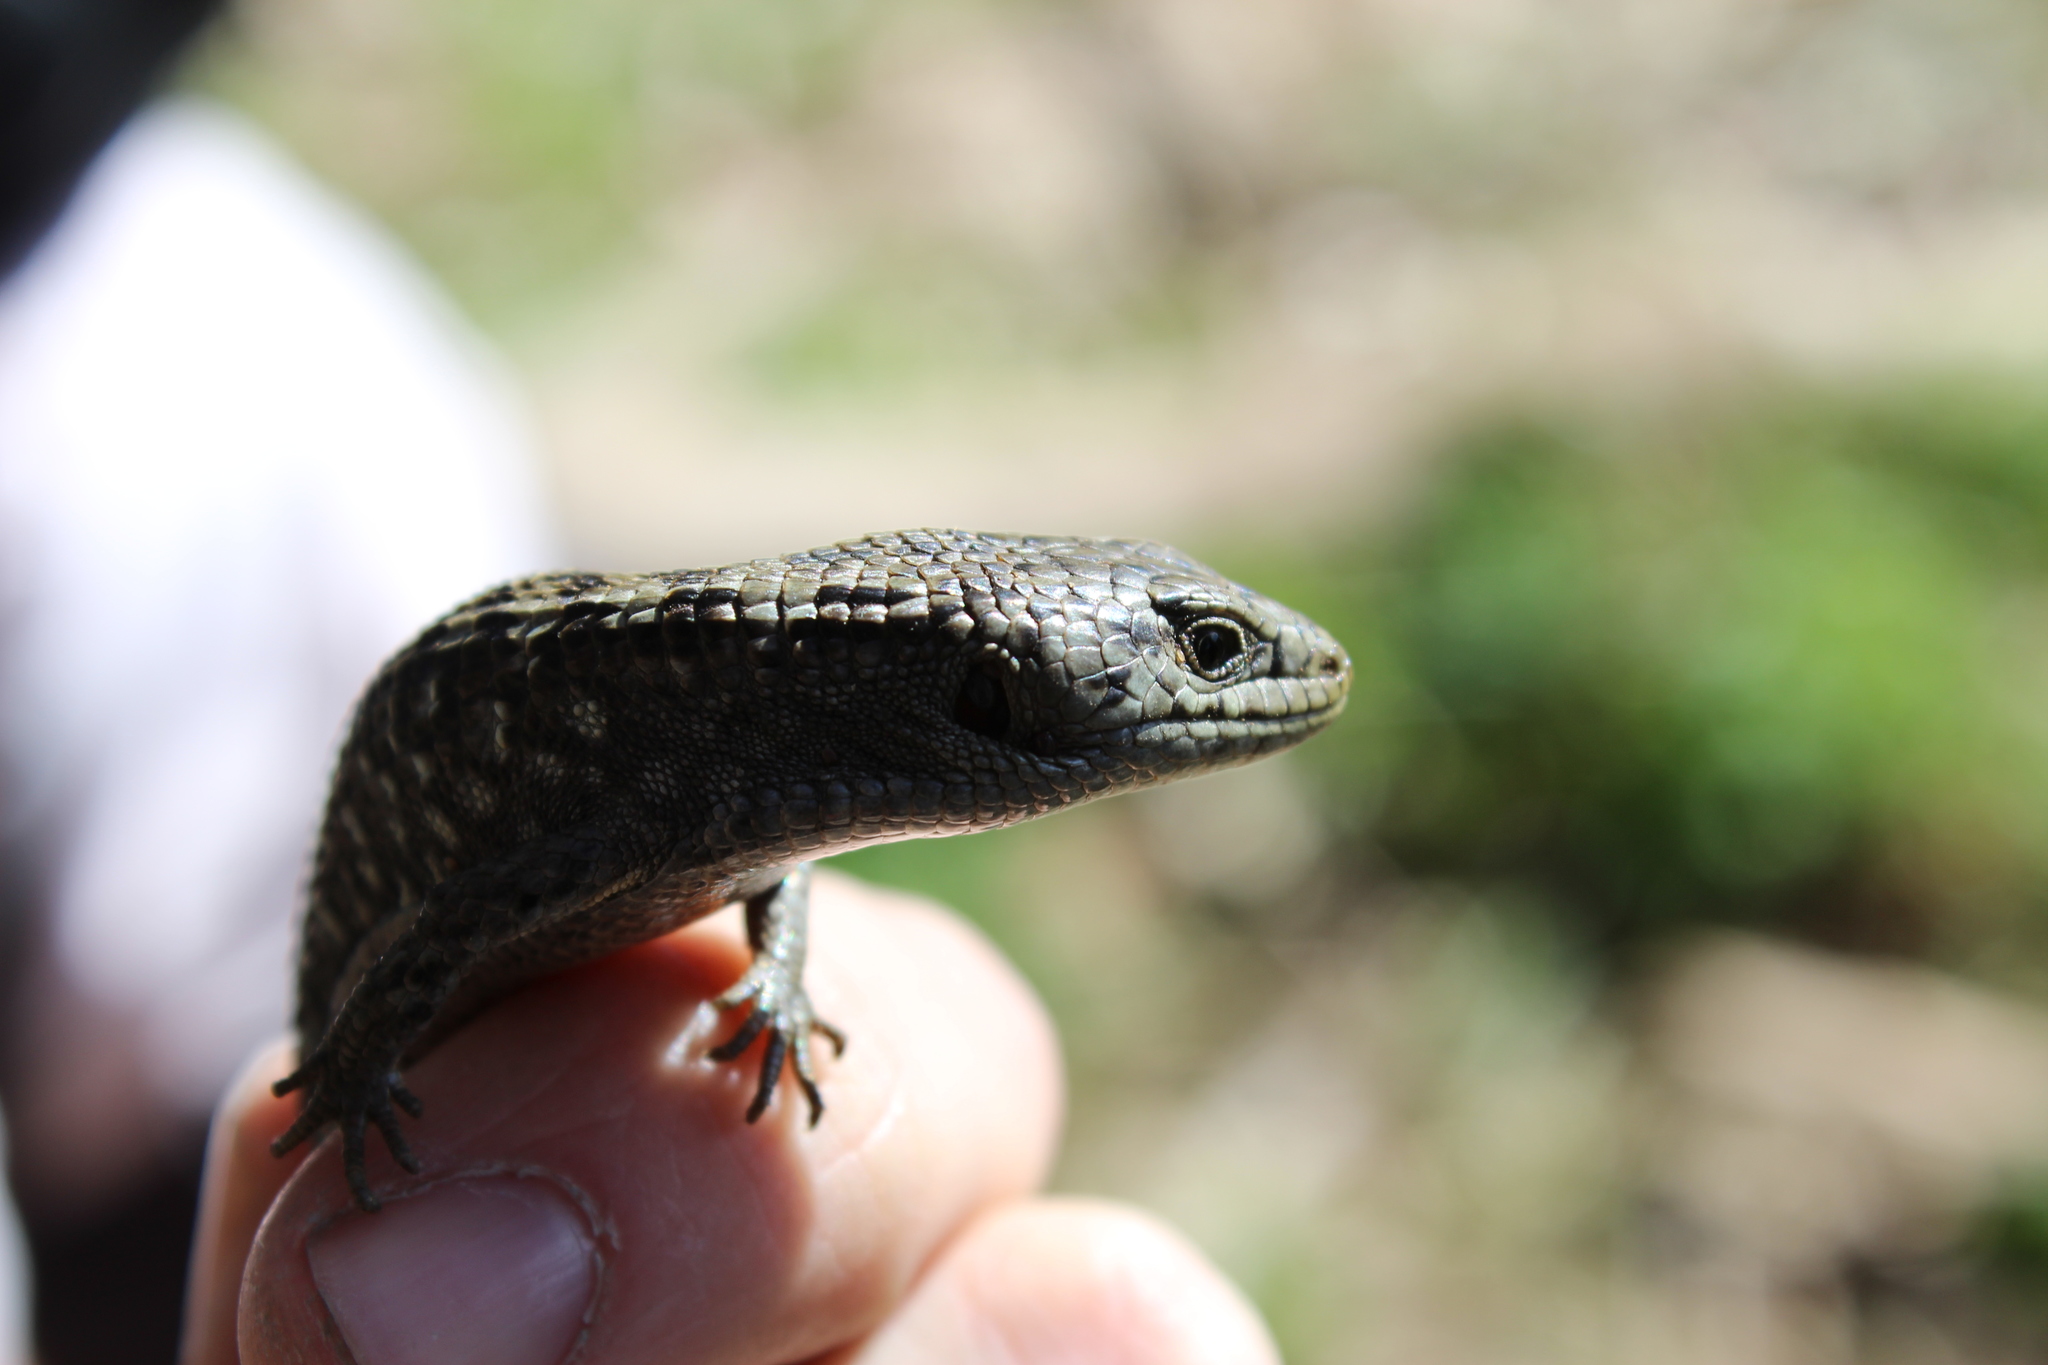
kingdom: Animalia
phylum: Chordata
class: Squamata
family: Anguidae
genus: Elgaria
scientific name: Elgaria coerulea
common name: Northern alligator lizard
